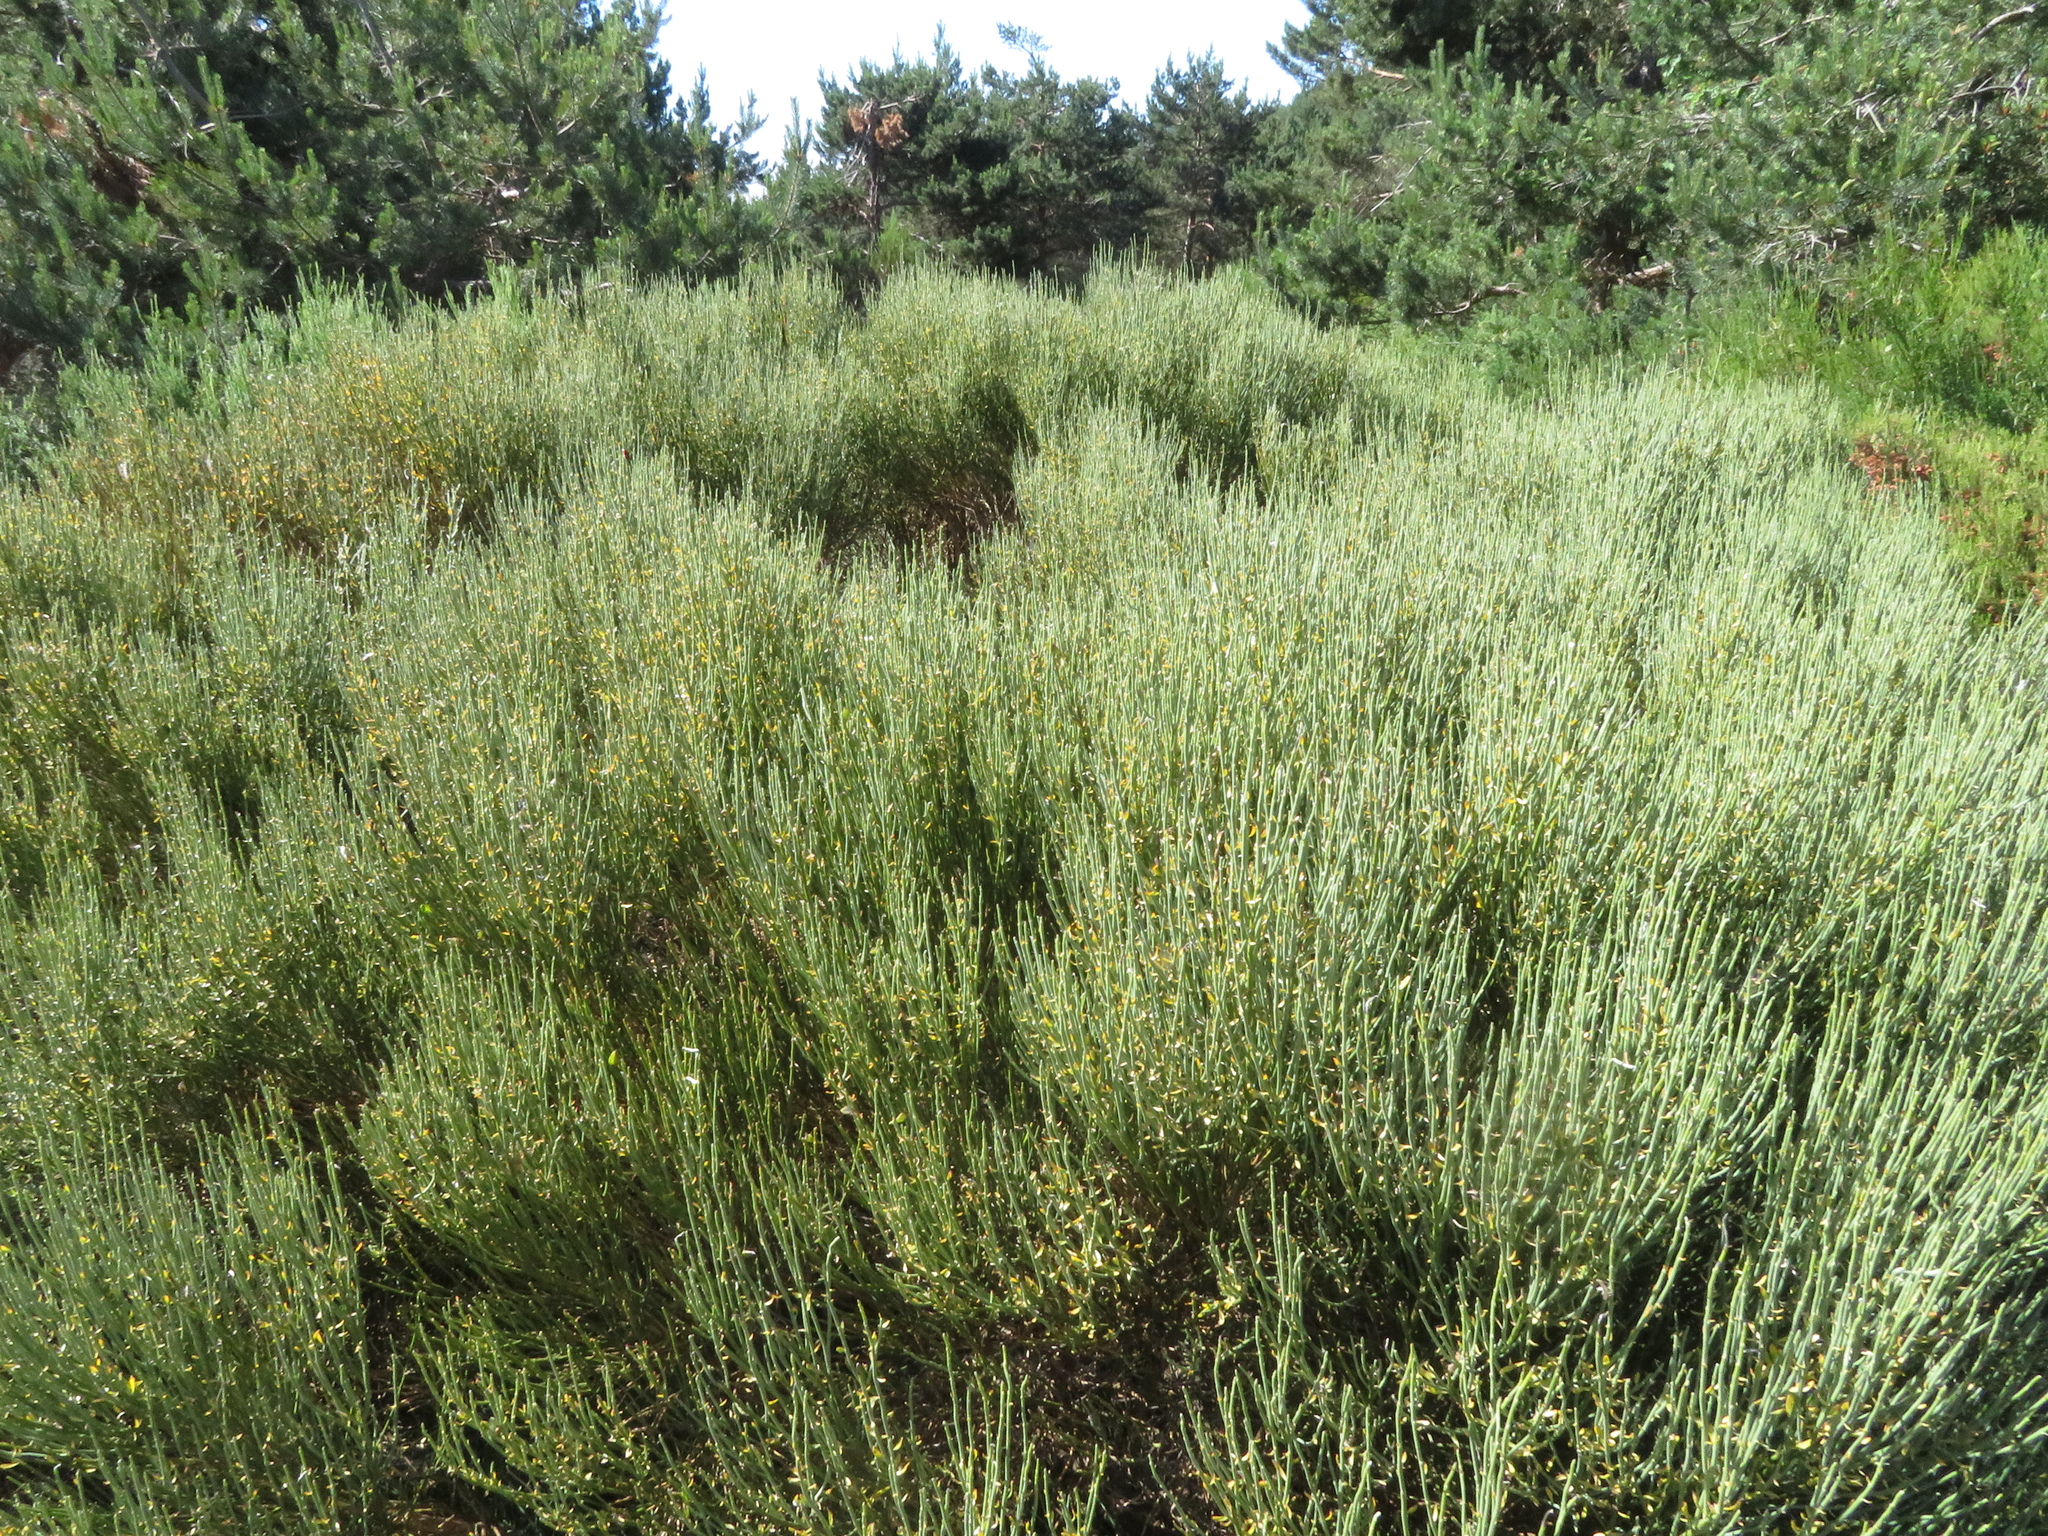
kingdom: Plantae
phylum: Tracheophyta
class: Magnoliopsida
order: Fabales
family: Fabaceae
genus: Cytisus
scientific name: Cytisus oromediterraneus
